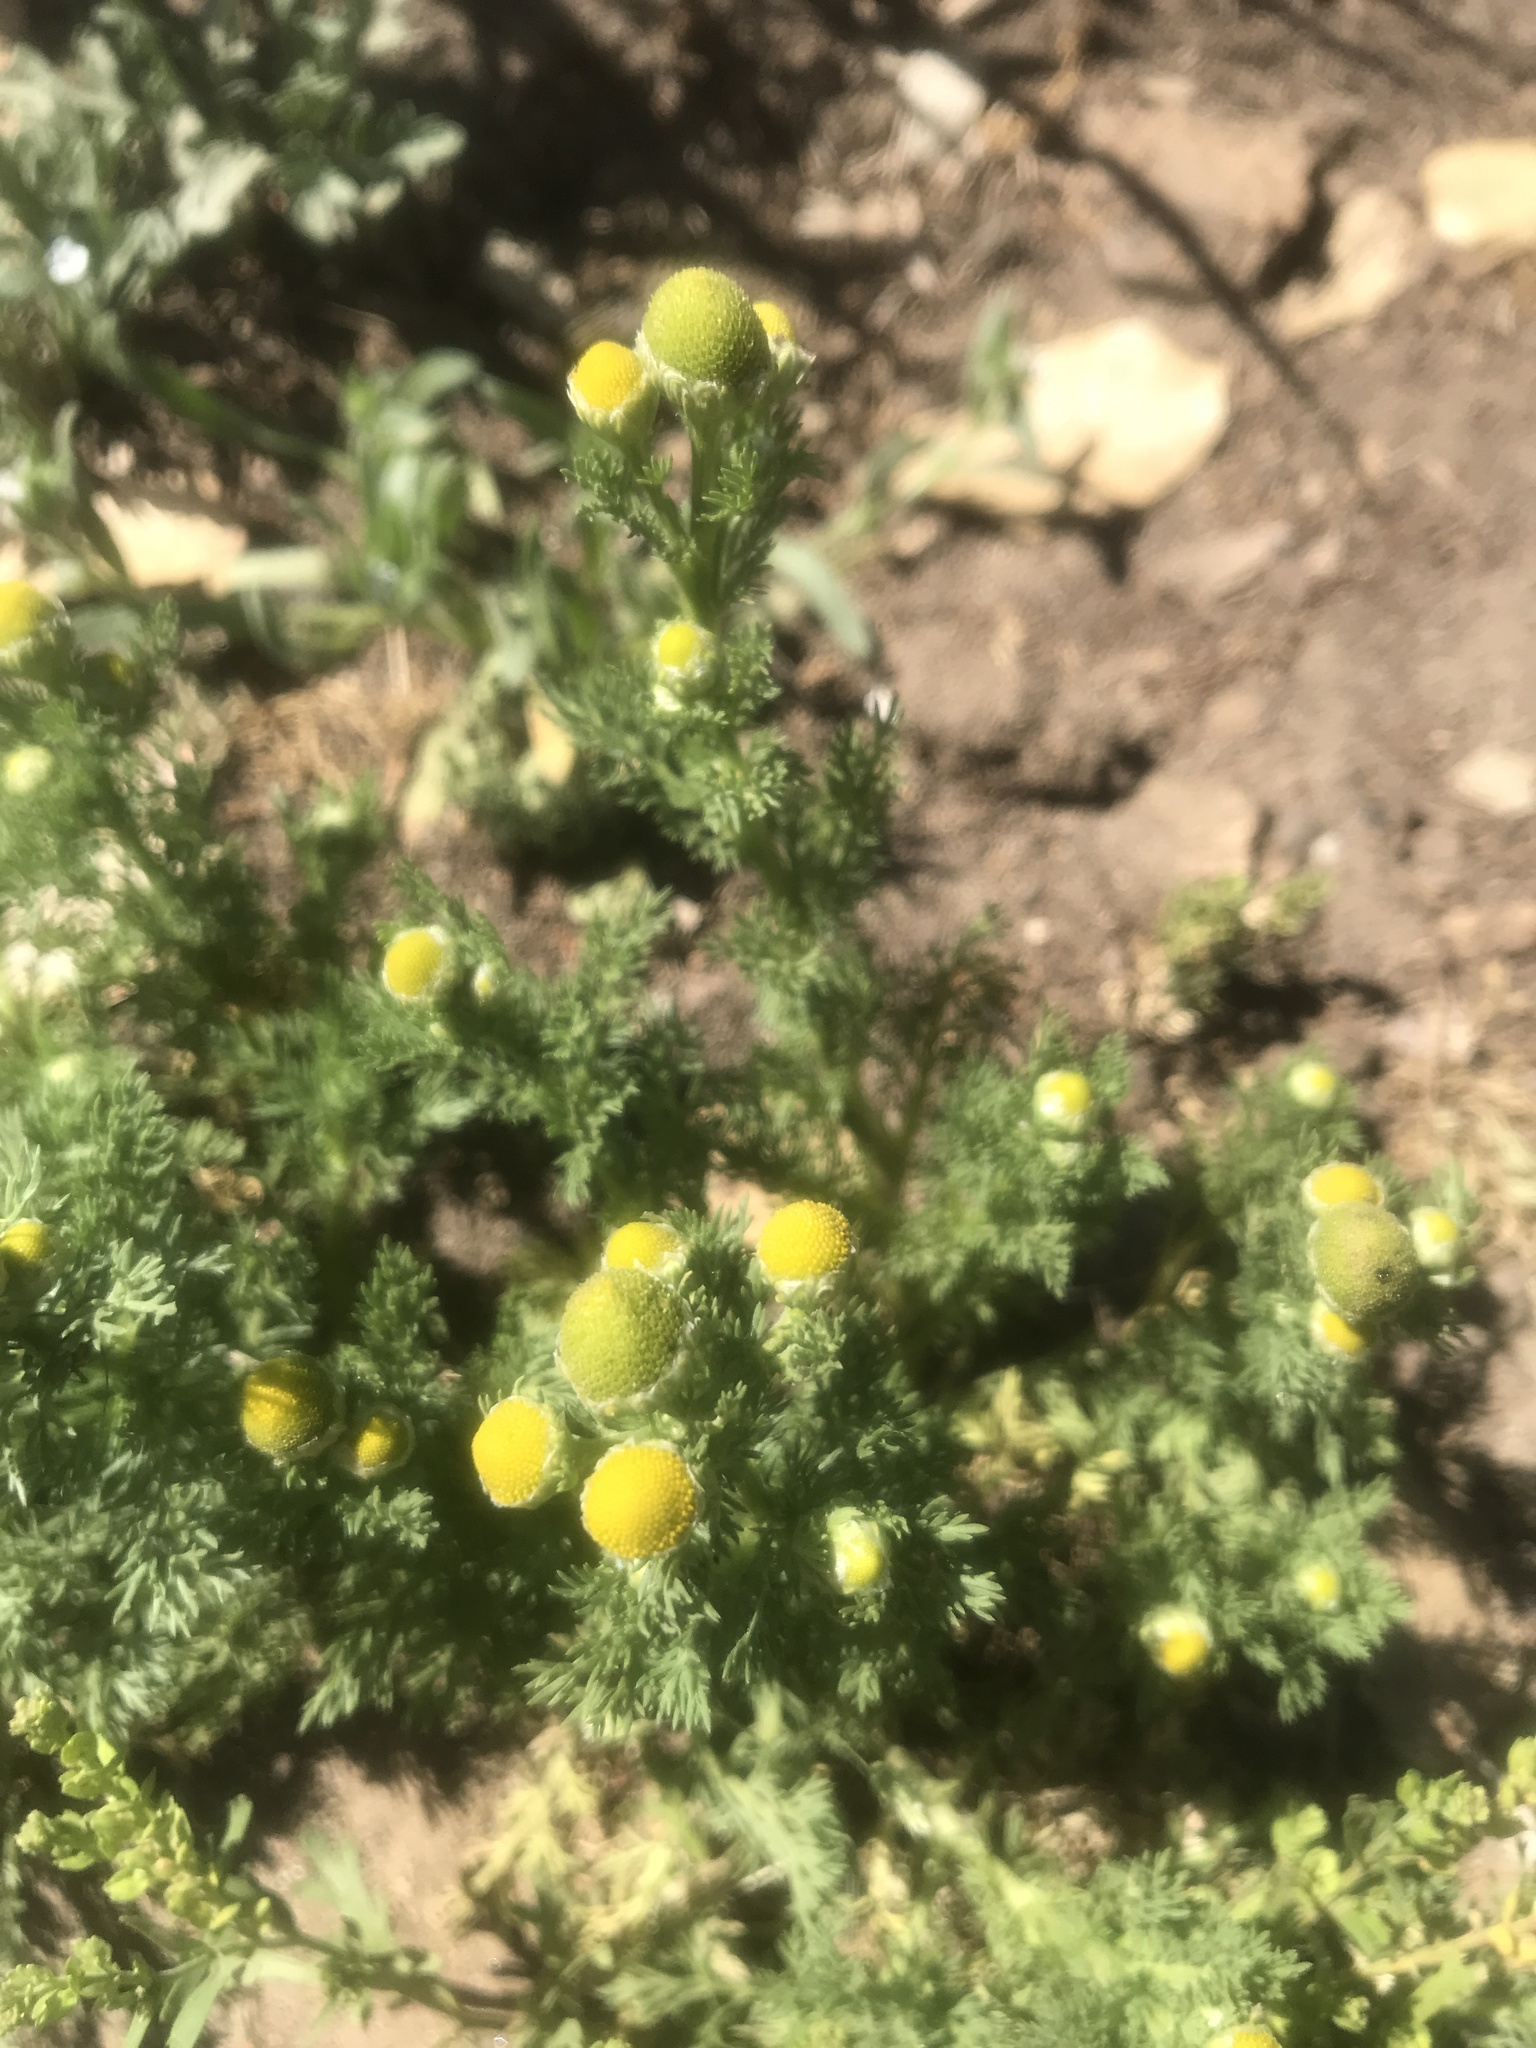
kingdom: Plantae
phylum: Tracheophyta
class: Magnoliopsida
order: Asterales
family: Asteraceae
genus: Matricaria
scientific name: Matricaria discoidea
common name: Disc mayweed
